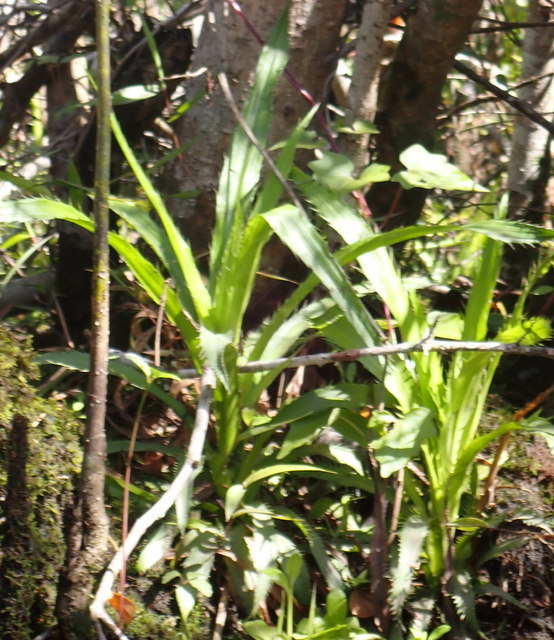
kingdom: Plantae
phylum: Tracheophyta
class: Magnoliopsida
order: Apiales
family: Apiaceae
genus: Eryngium
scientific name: Eryngium yuccifolium
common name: Button eryngo
